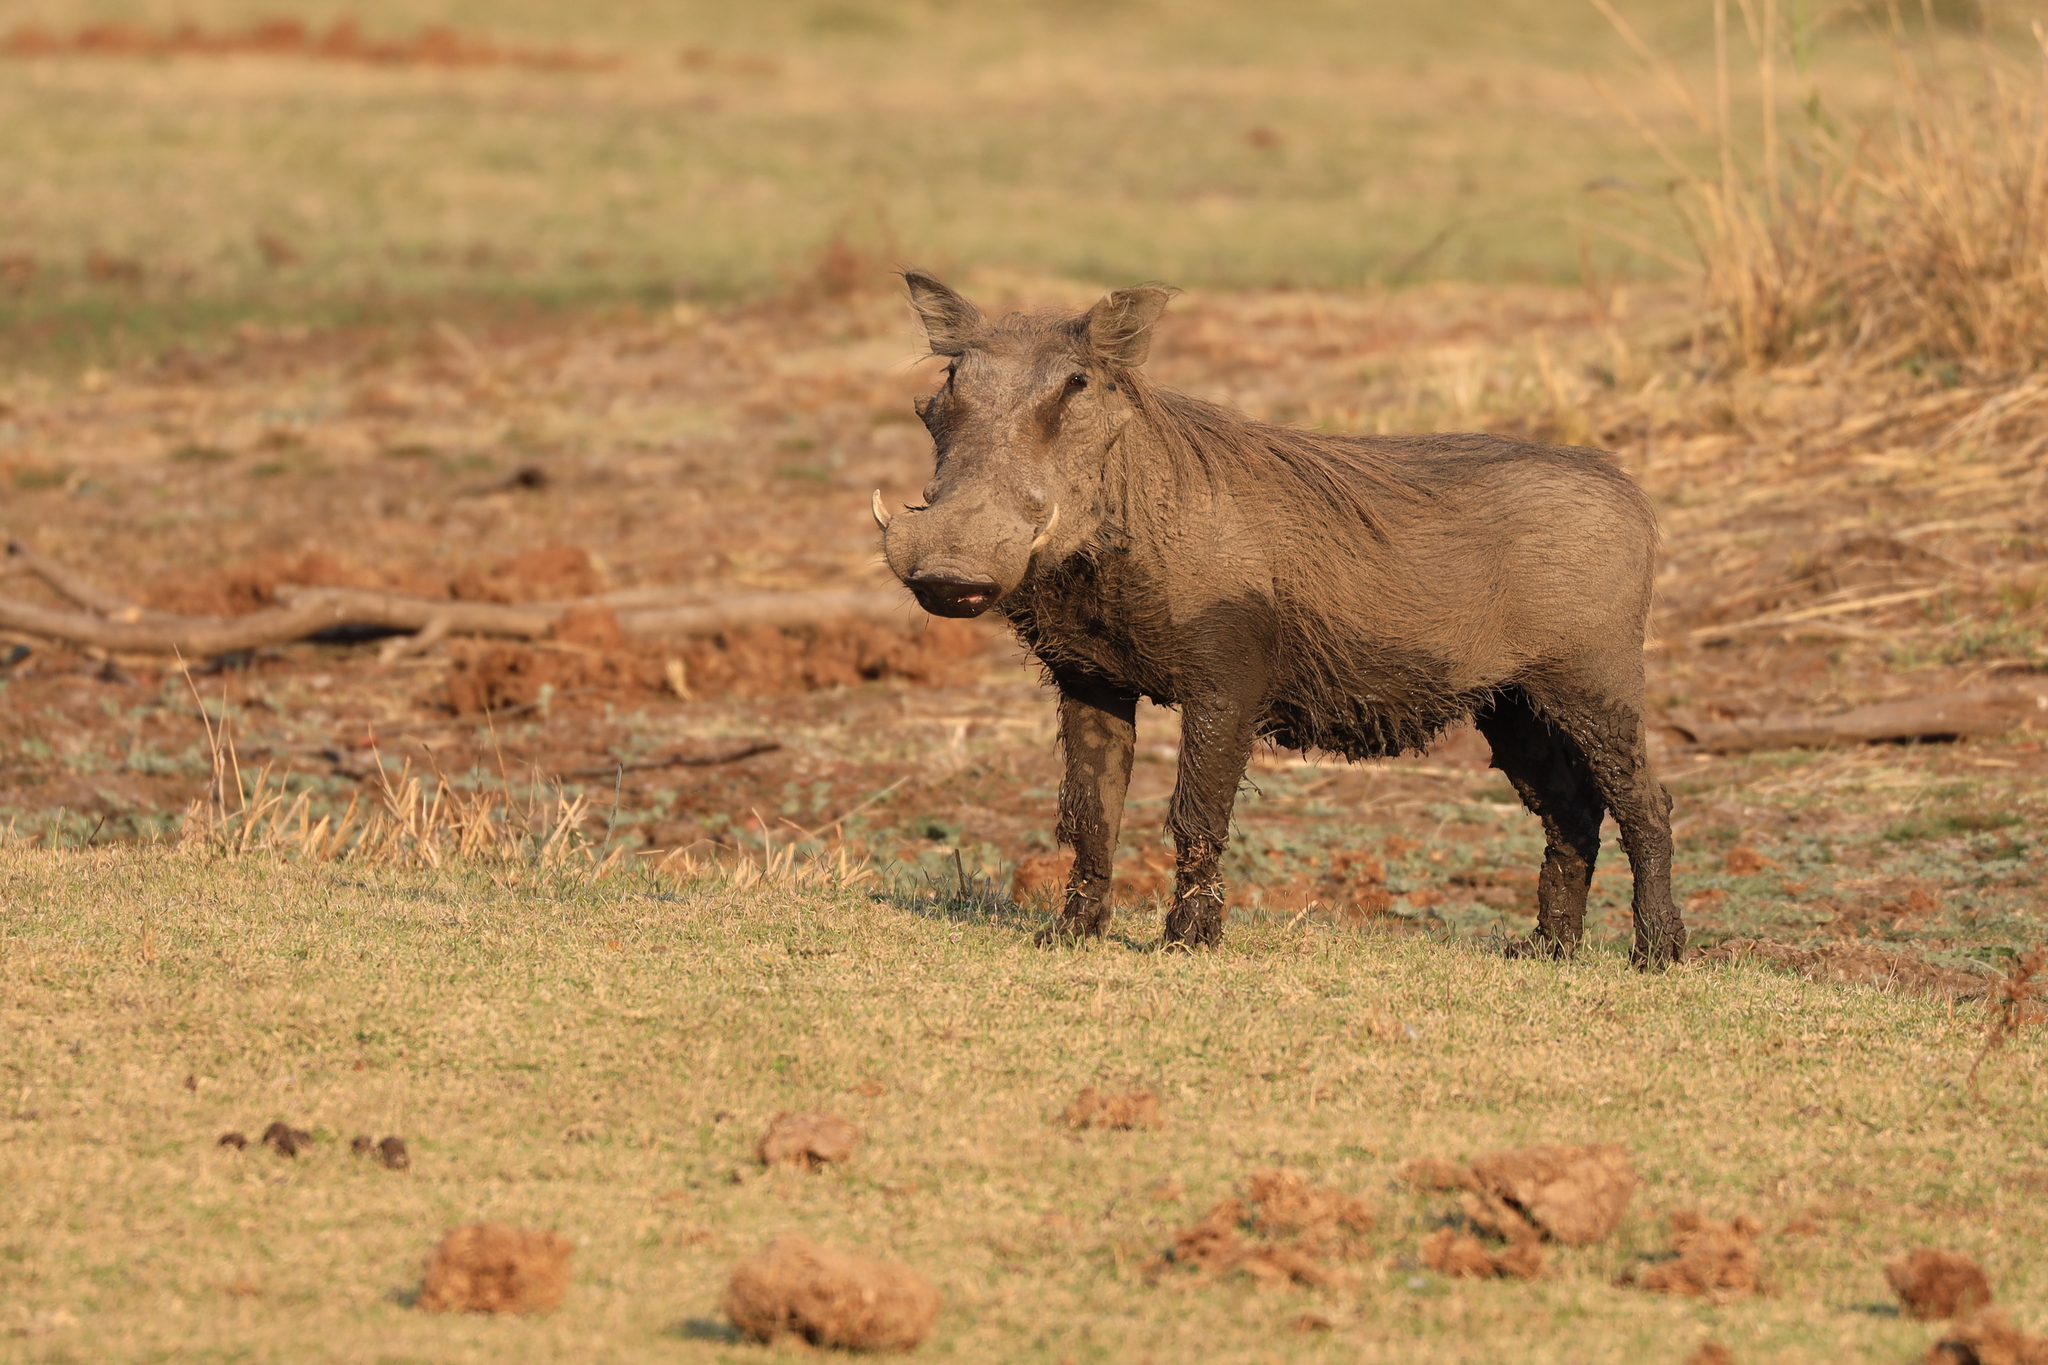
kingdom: Animalia
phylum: Chordata
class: Mammalia
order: Artiodactyla
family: Suidae
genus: Phacochoerus
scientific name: Phacochoerus africanus
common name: Common warthog
